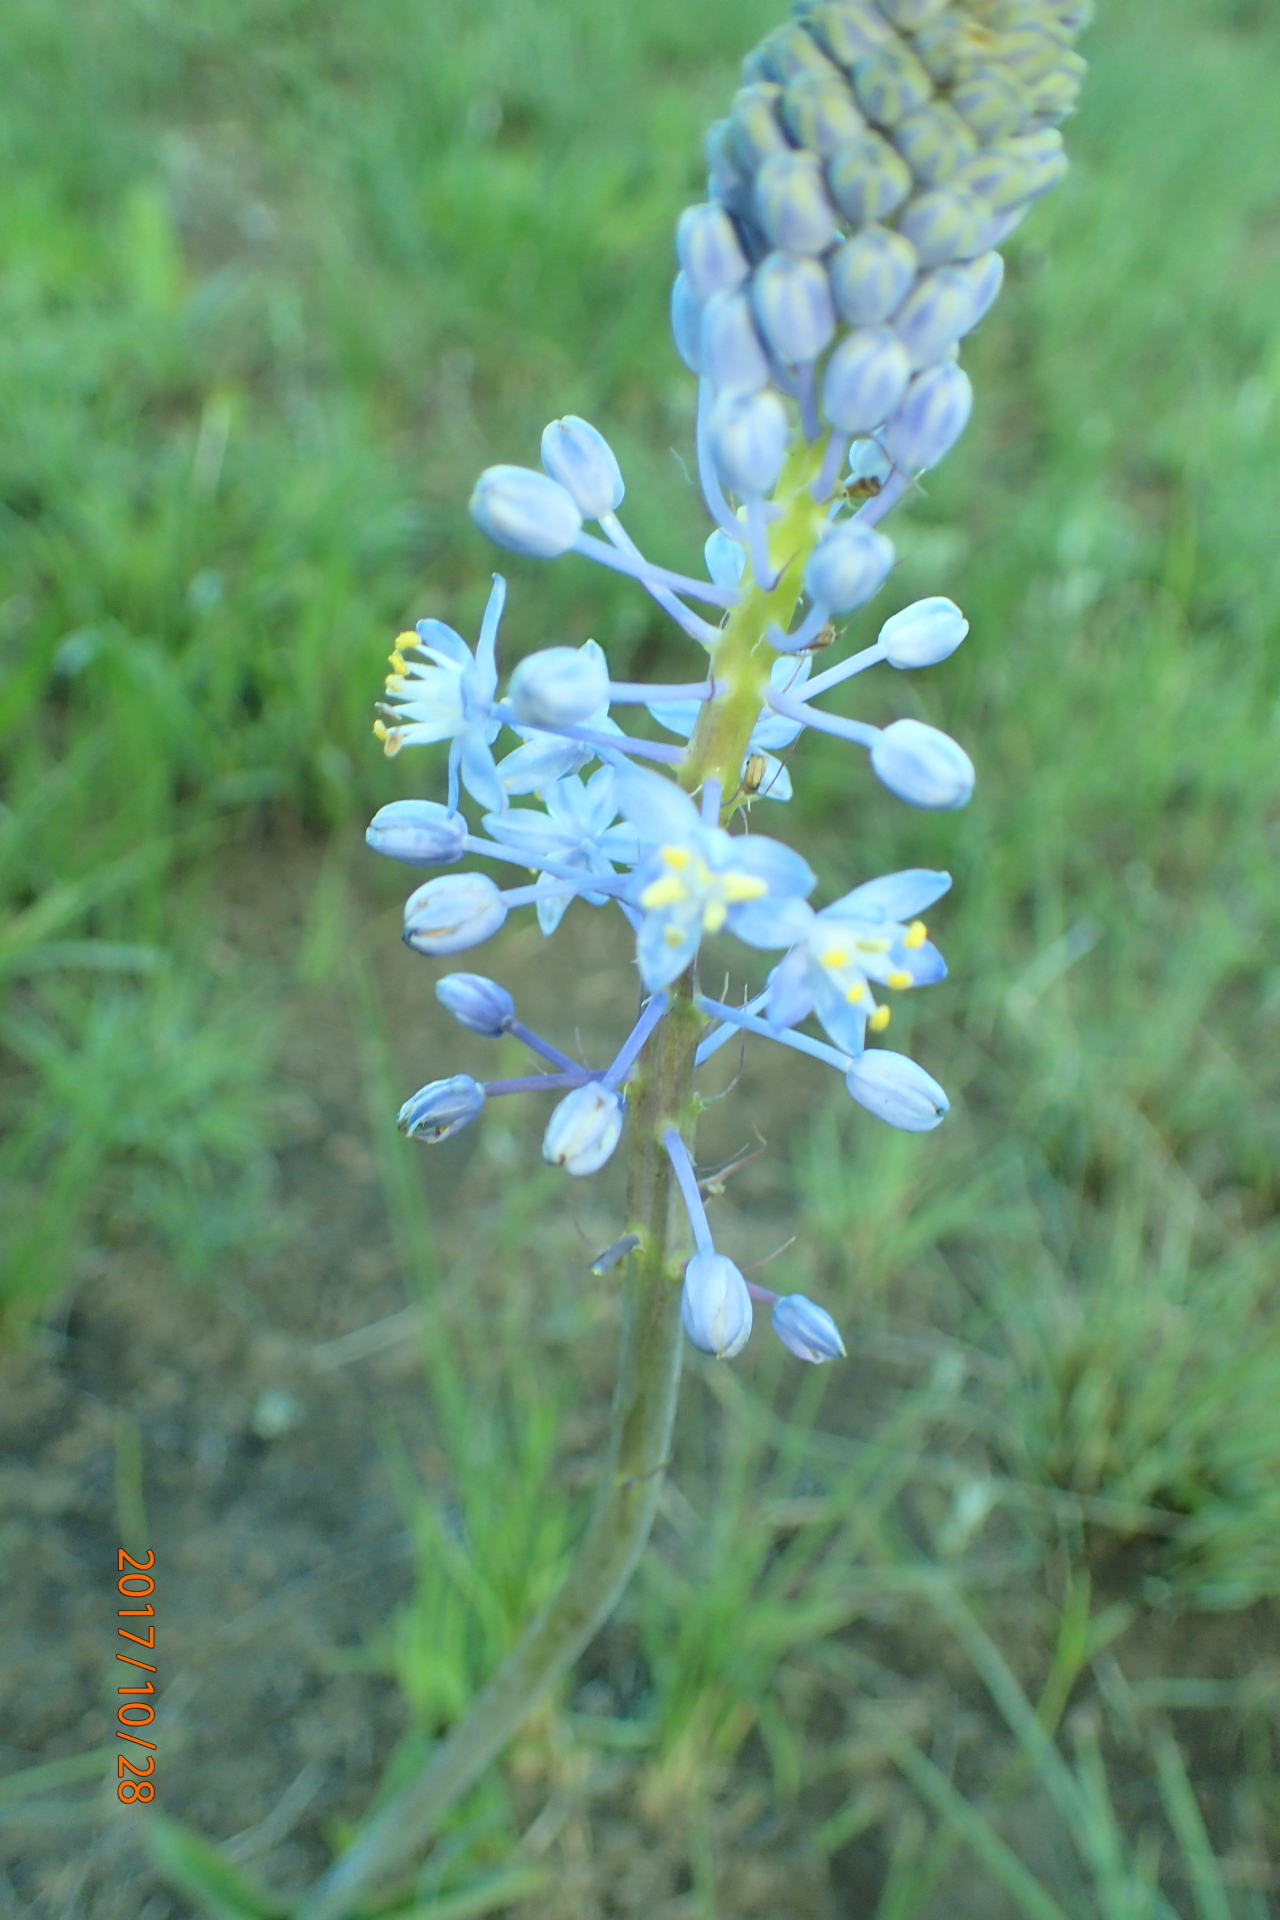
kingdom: Plantae
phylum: Tracheophyta
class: Liliopsida
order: Asparagales
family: Asparagaceae
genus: Merwilla
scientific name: Merwilla plumbea
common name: Blue-squill
